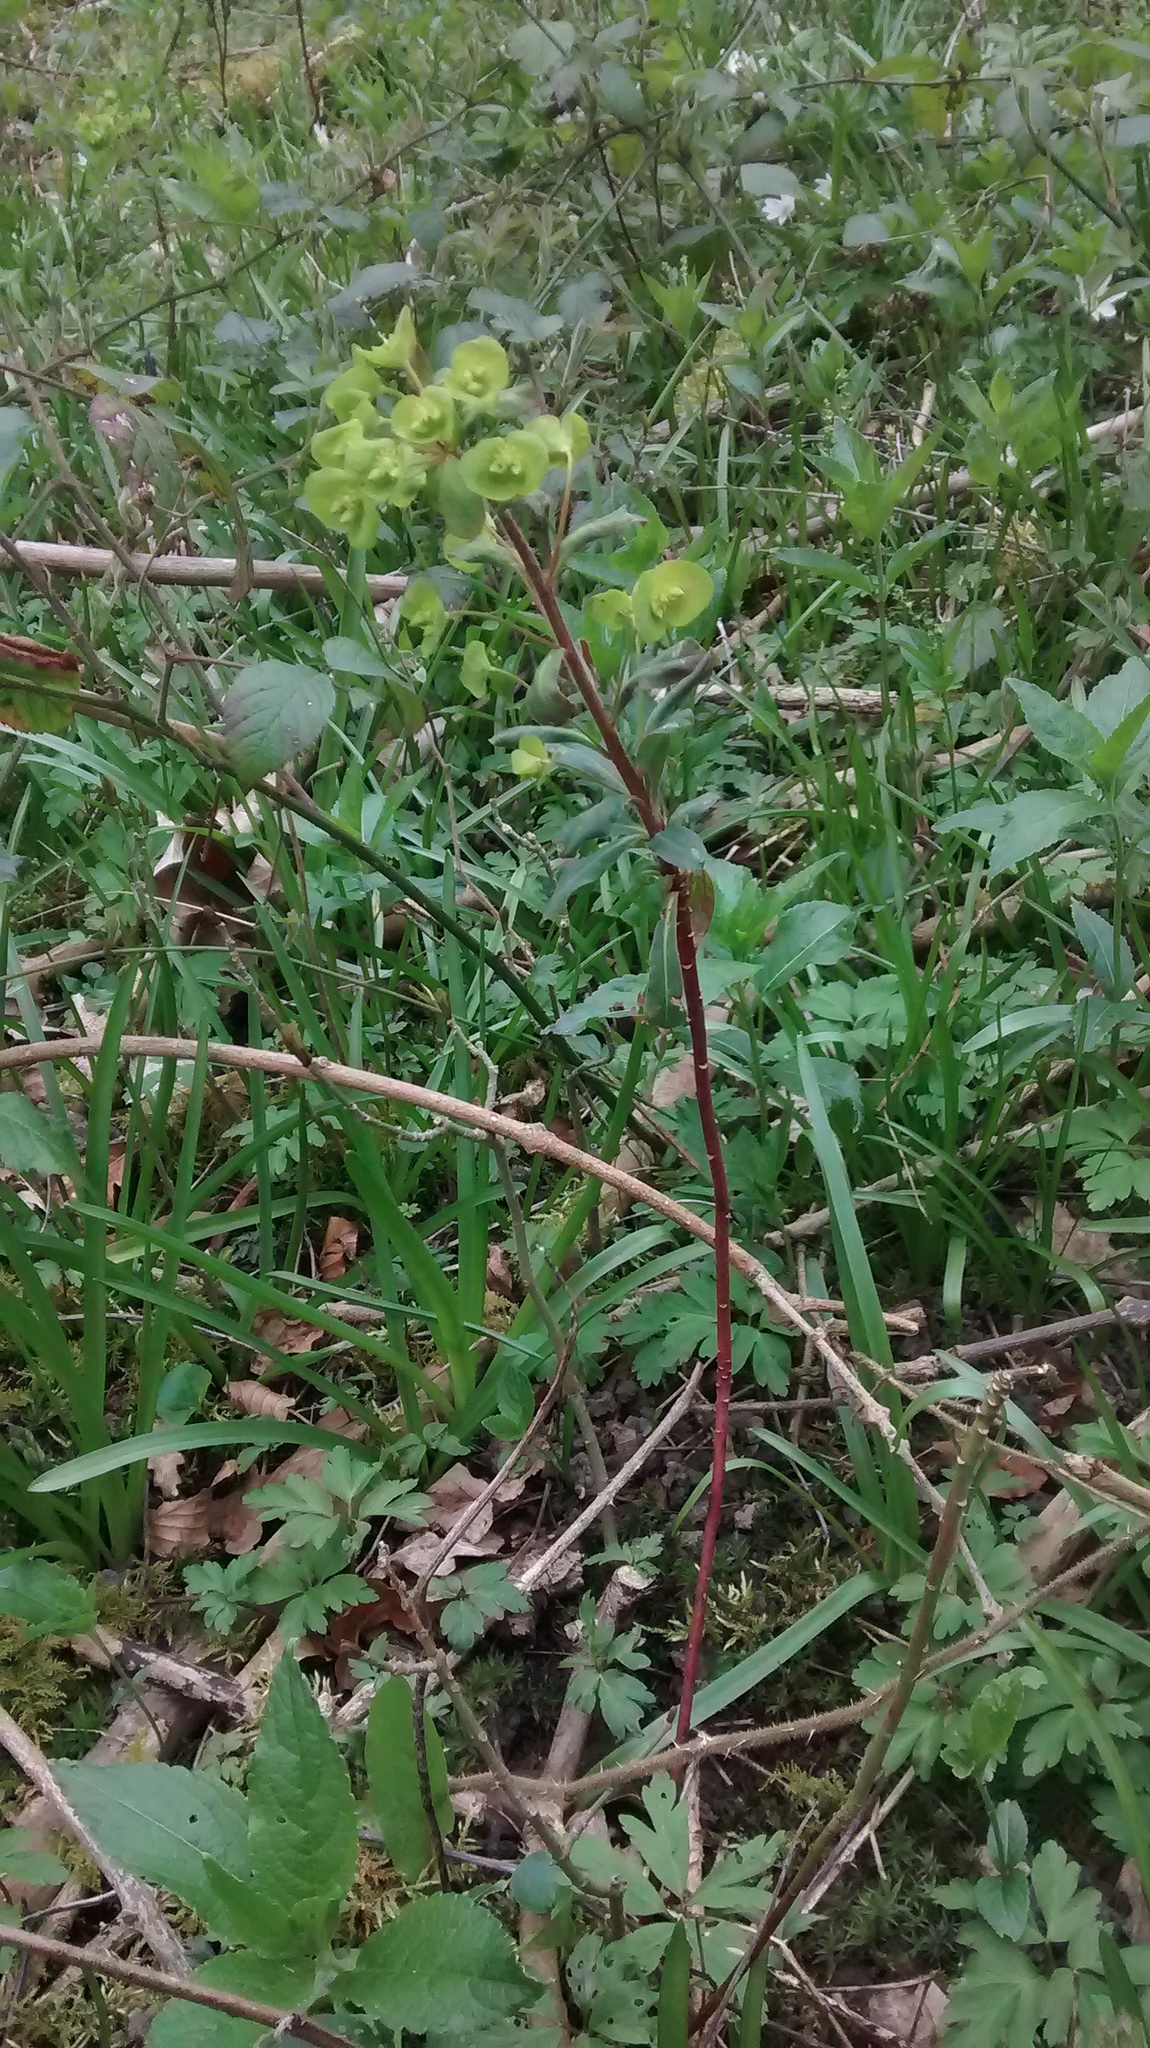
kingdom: Plantae
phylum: Tracheophyta
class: Magnoliopsida
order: Malpighiales
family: Euphorbiaceae
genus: Euphorbia
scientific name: Euphorbia amygdaloides
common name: Wood spurge
